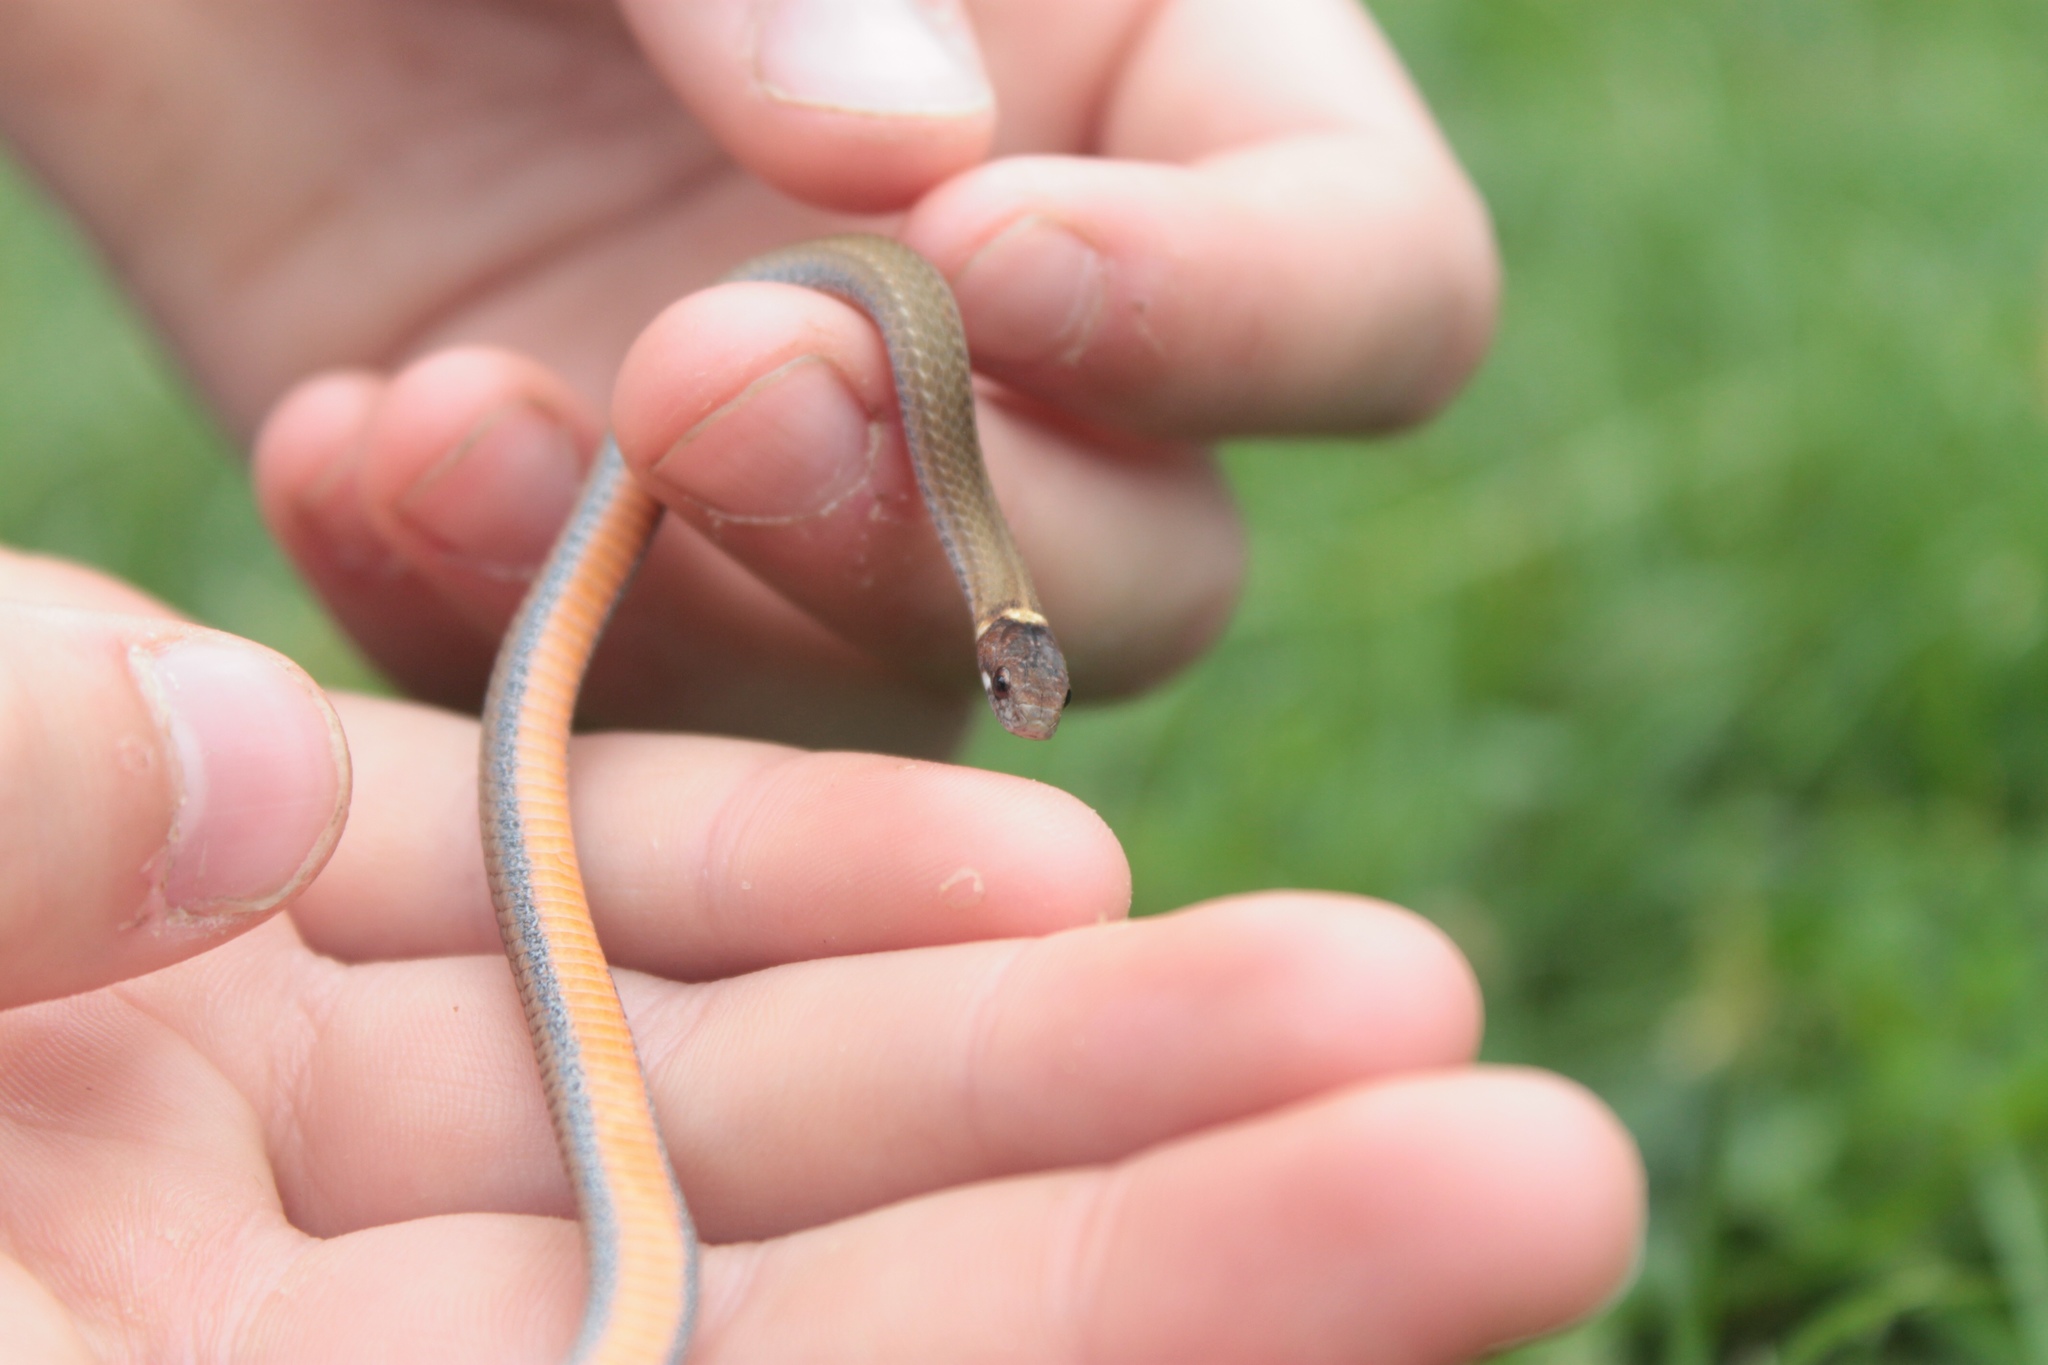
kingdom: Animalia
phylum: Chordata
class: Squamata
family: Colubridae
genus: Storeria
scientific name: Storeria occipitomaculata
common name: Redbelly snake
